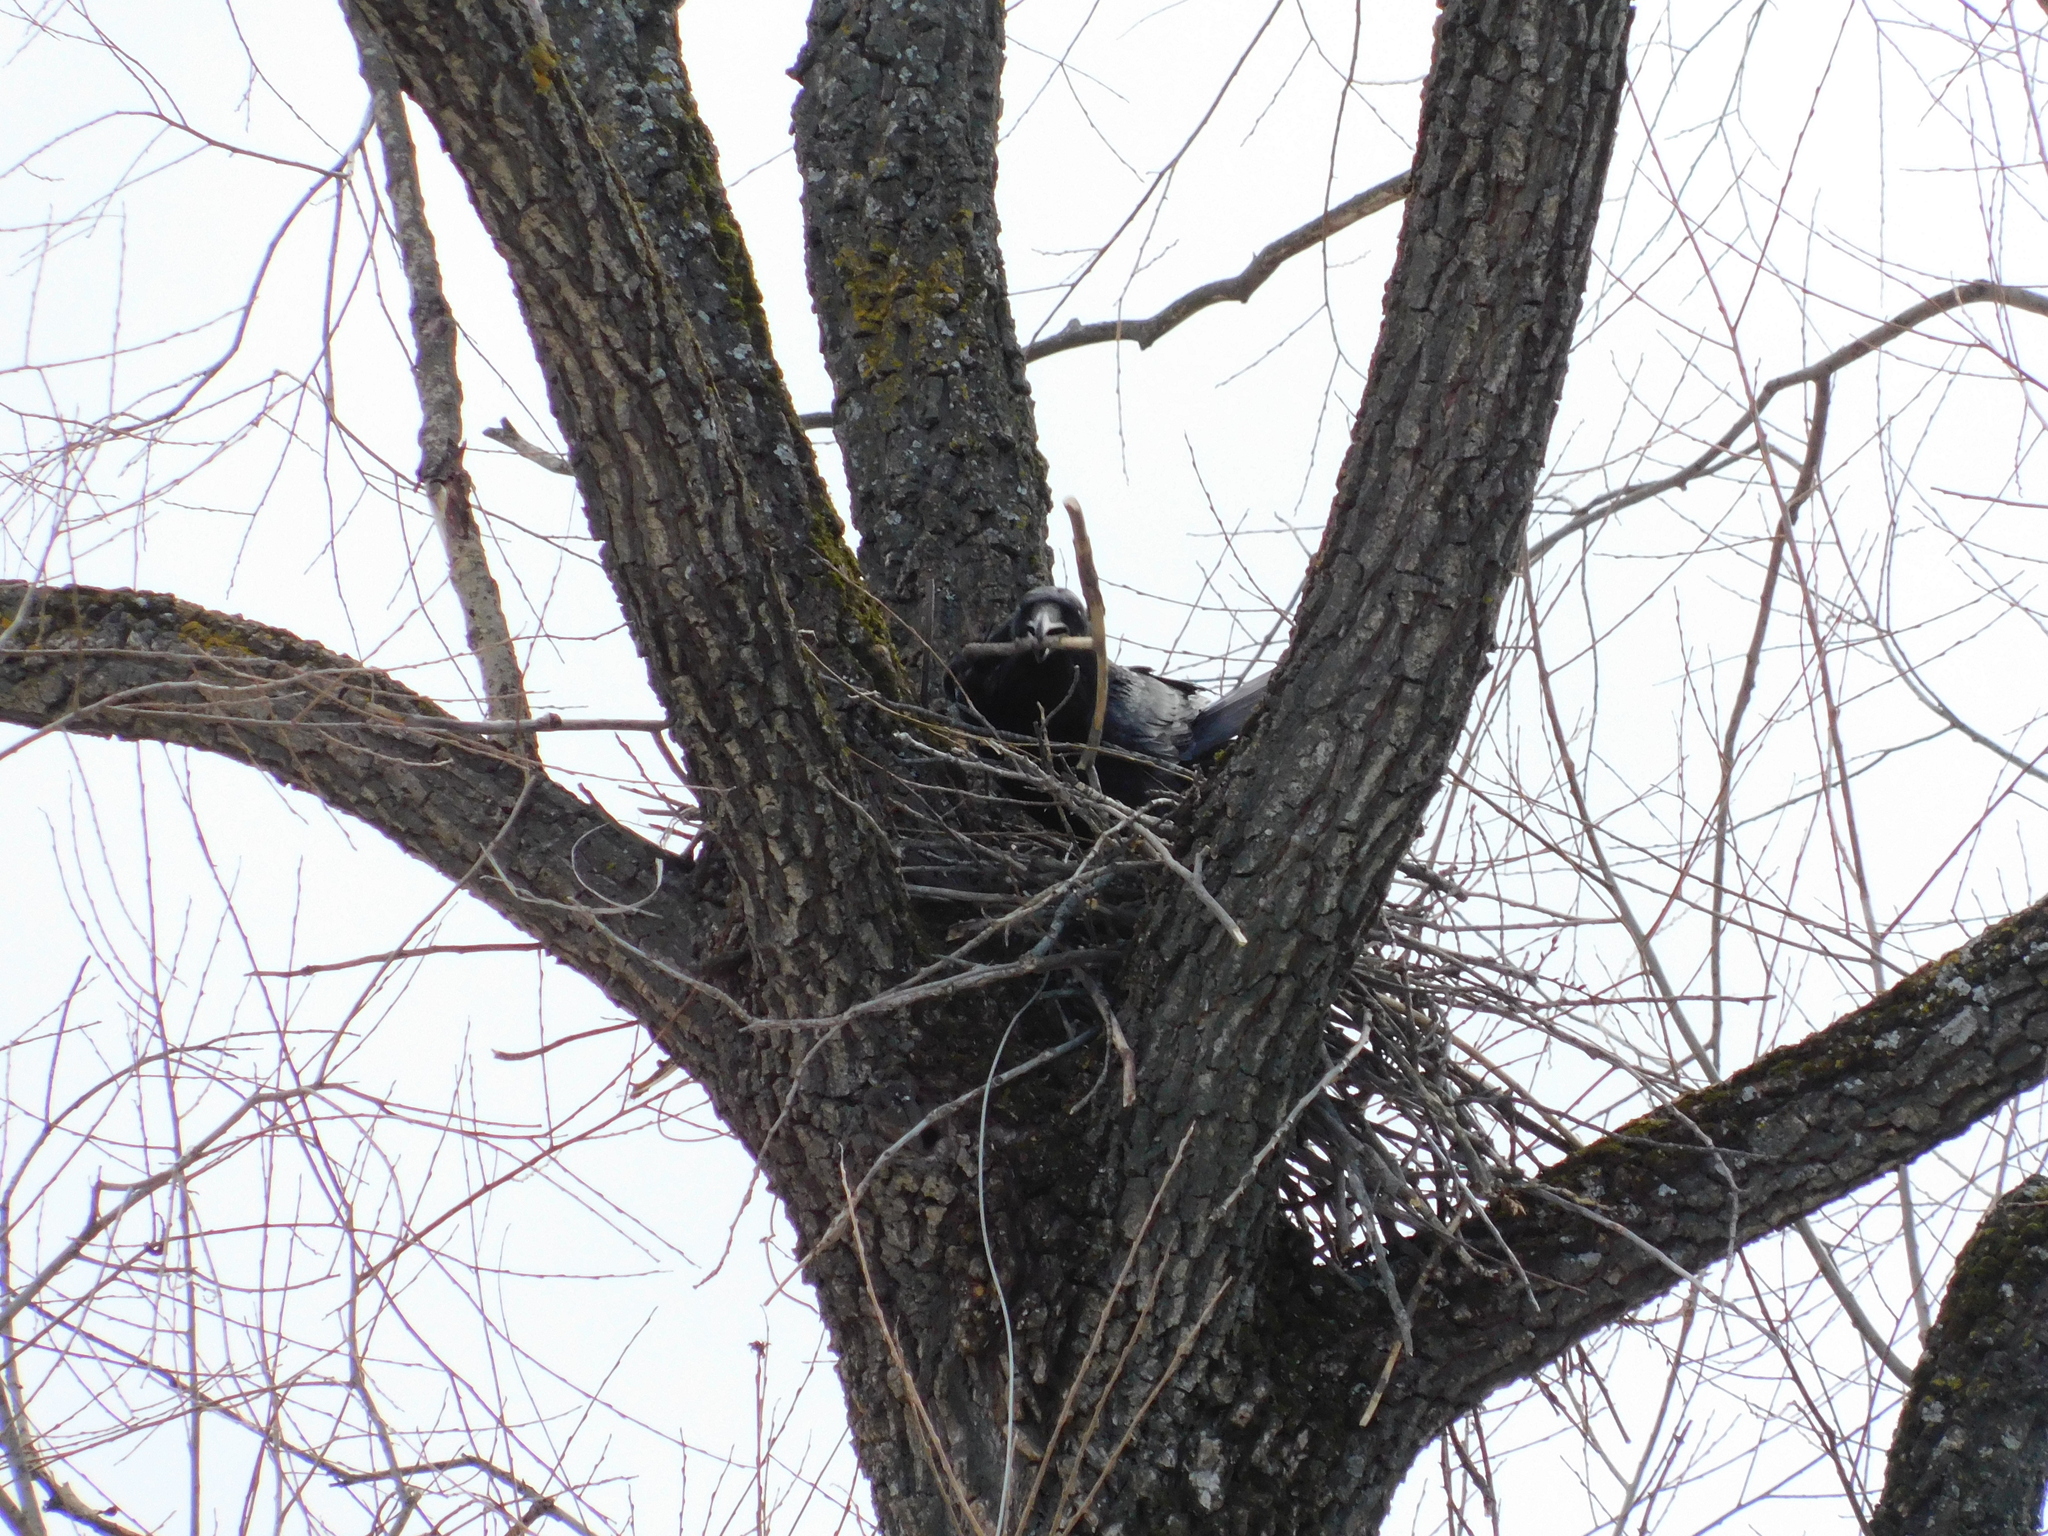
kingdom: Animalia
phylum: Chordata
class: Aves
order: Passeriformes
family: Corvidae
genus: Corvus
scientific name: Corvus corax
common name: Common raven
